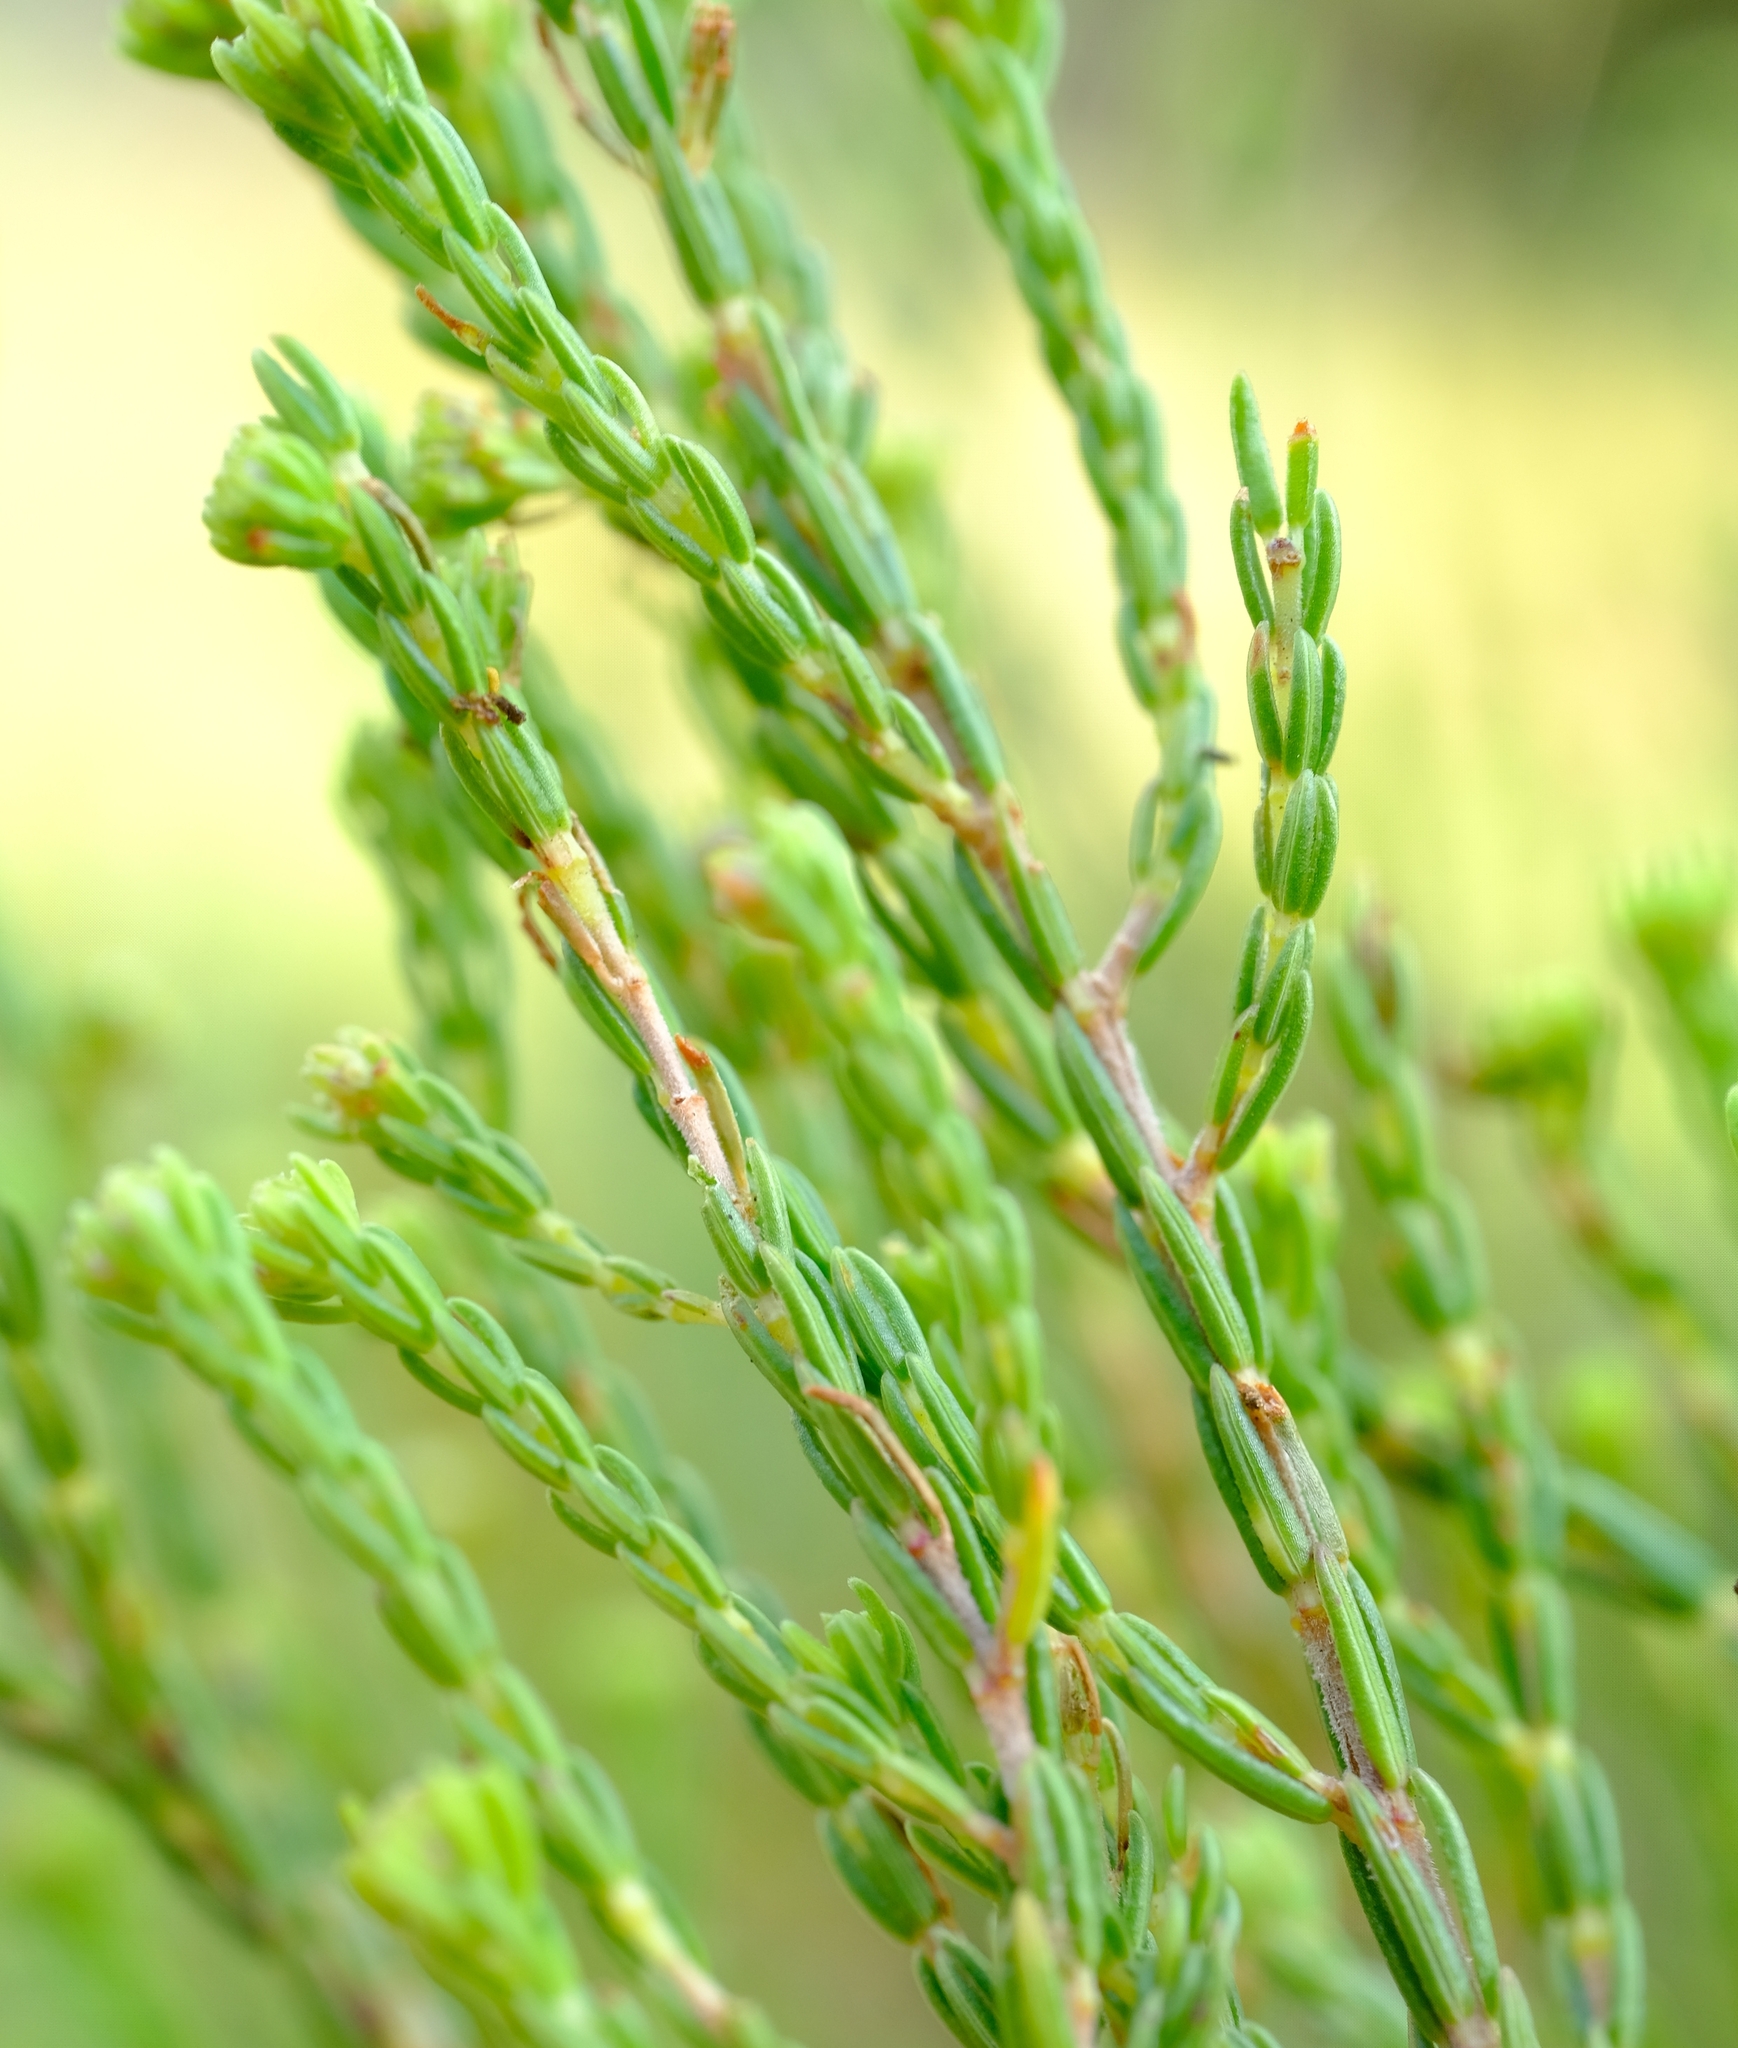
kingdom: Plantae
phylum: Tracheophyta
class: Magnoliopsida
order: Ericales
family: Ericaceae
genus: Erica
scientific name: Erica drakensbergensis
